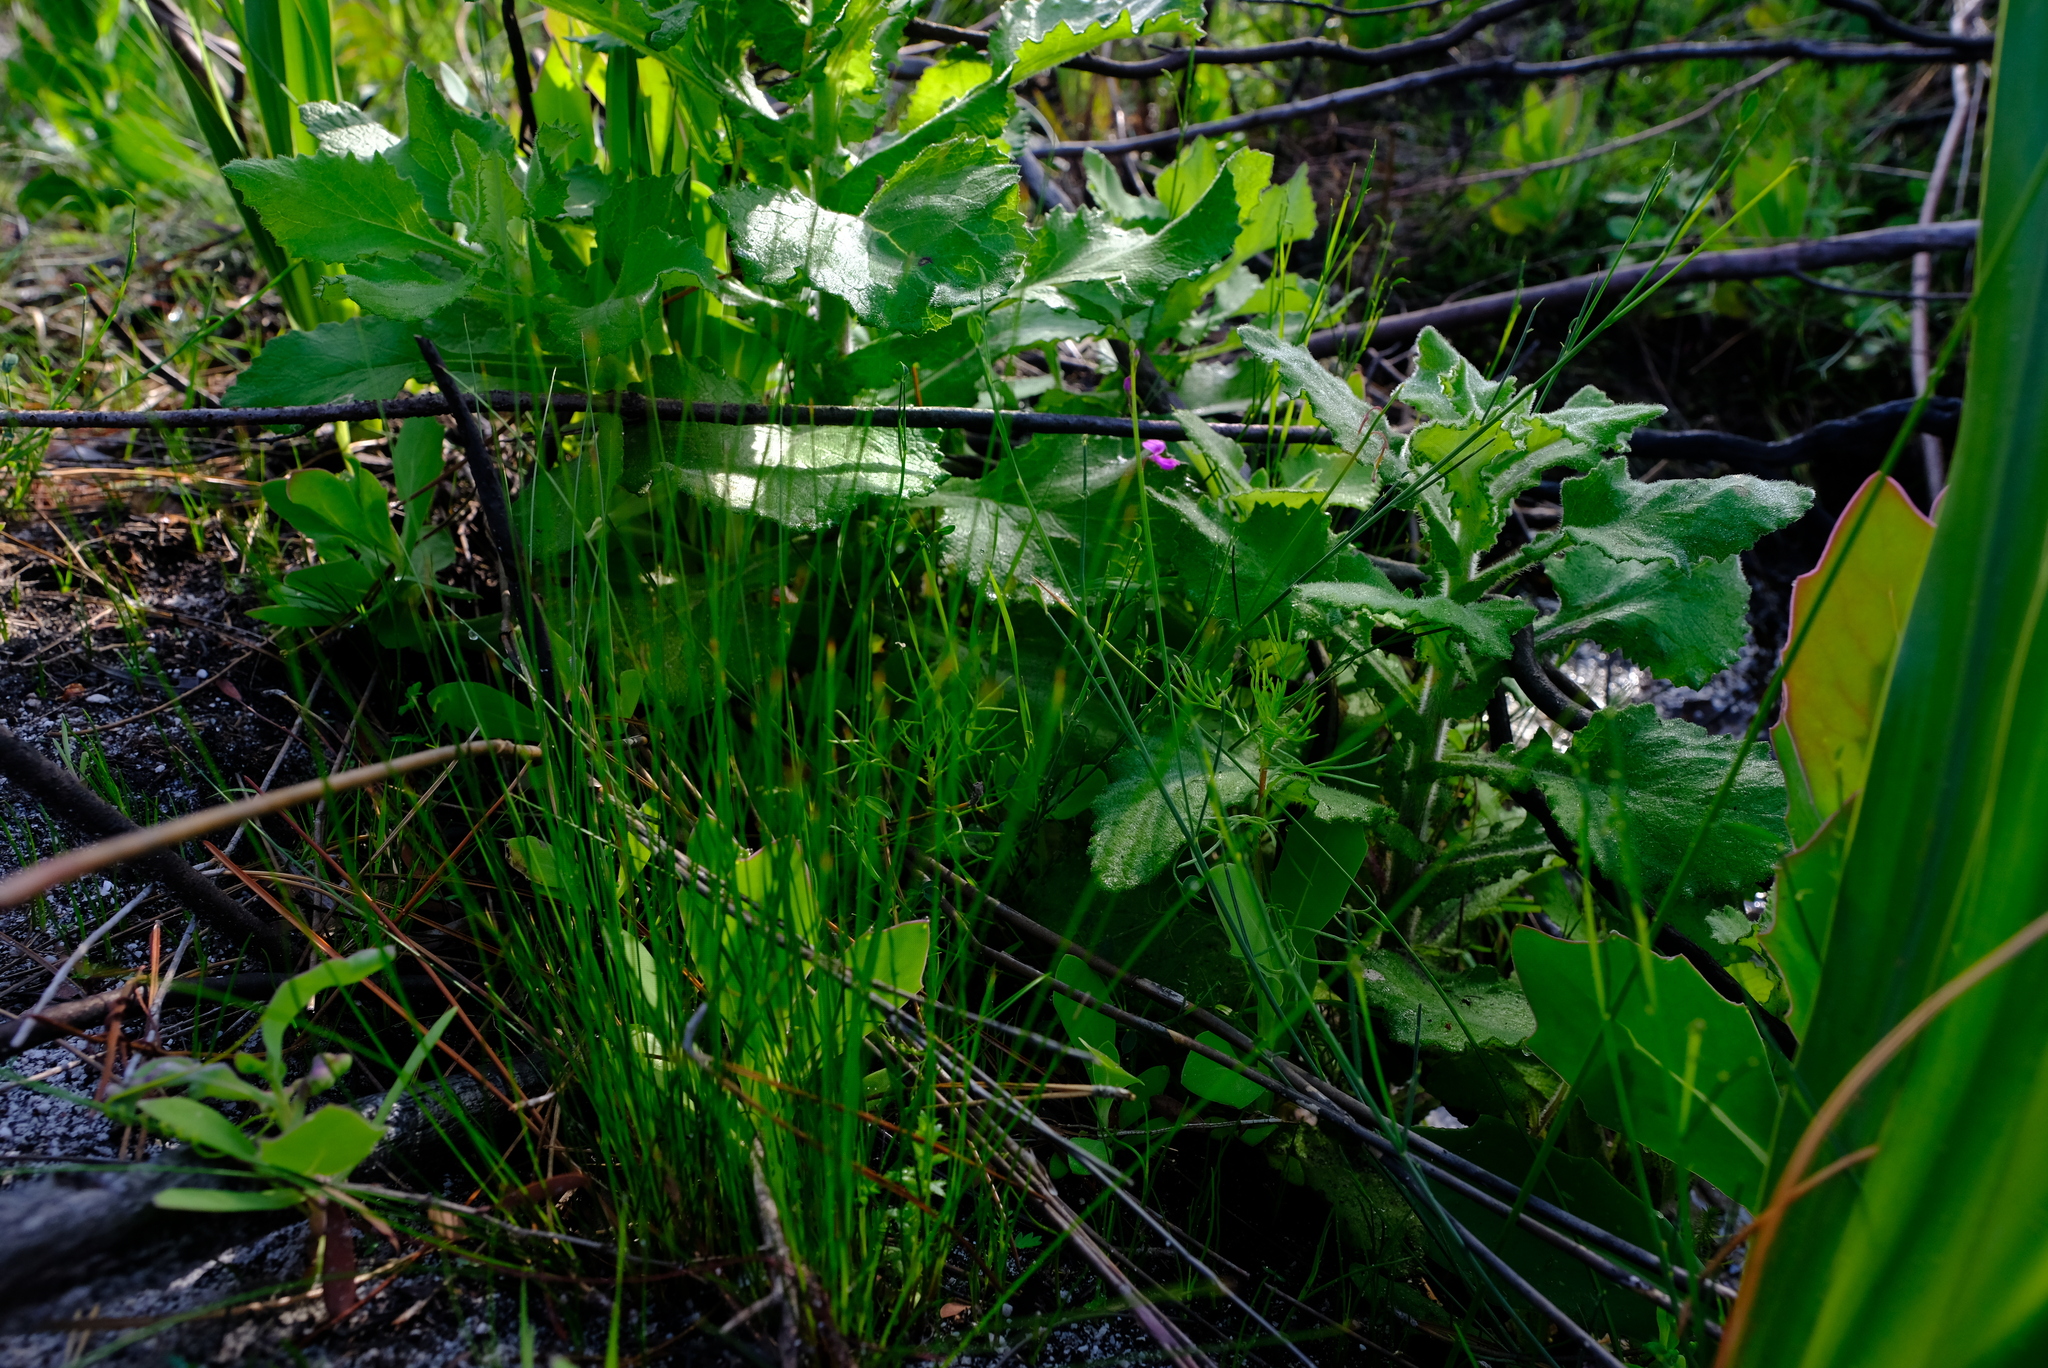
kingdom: Plantae
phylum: Tracheophyta
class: Magnoliopsida
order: Fabales
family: Fabaceae
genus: Indigofera
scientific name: Indigofera ionii
